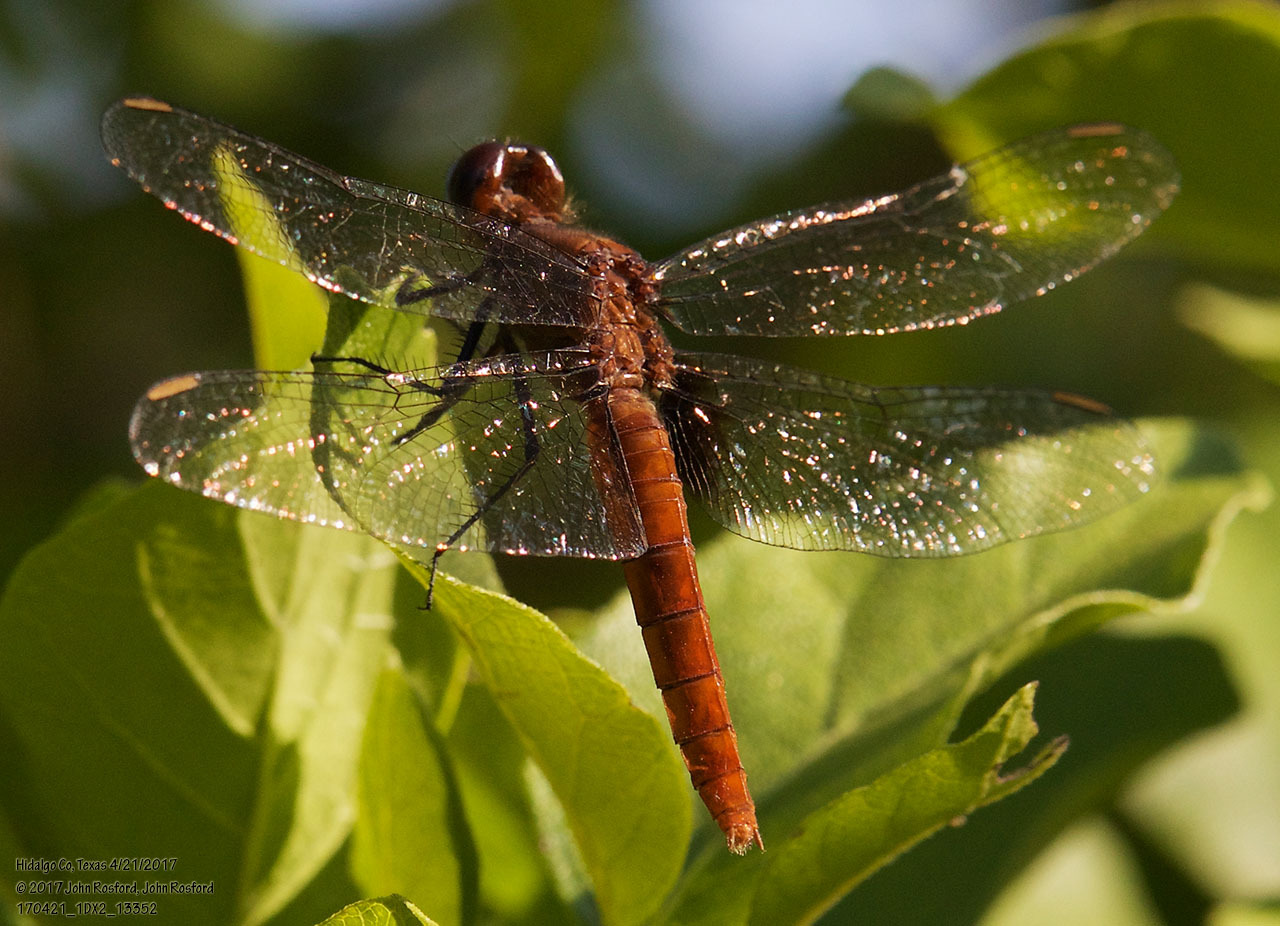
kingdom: Animalia
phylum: Arthropoda
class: Insecta
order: Odonata
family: Libellulidae
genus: Planiplax
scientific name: Planiplax sanguiniventris
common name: Mexican scarlet-tail
